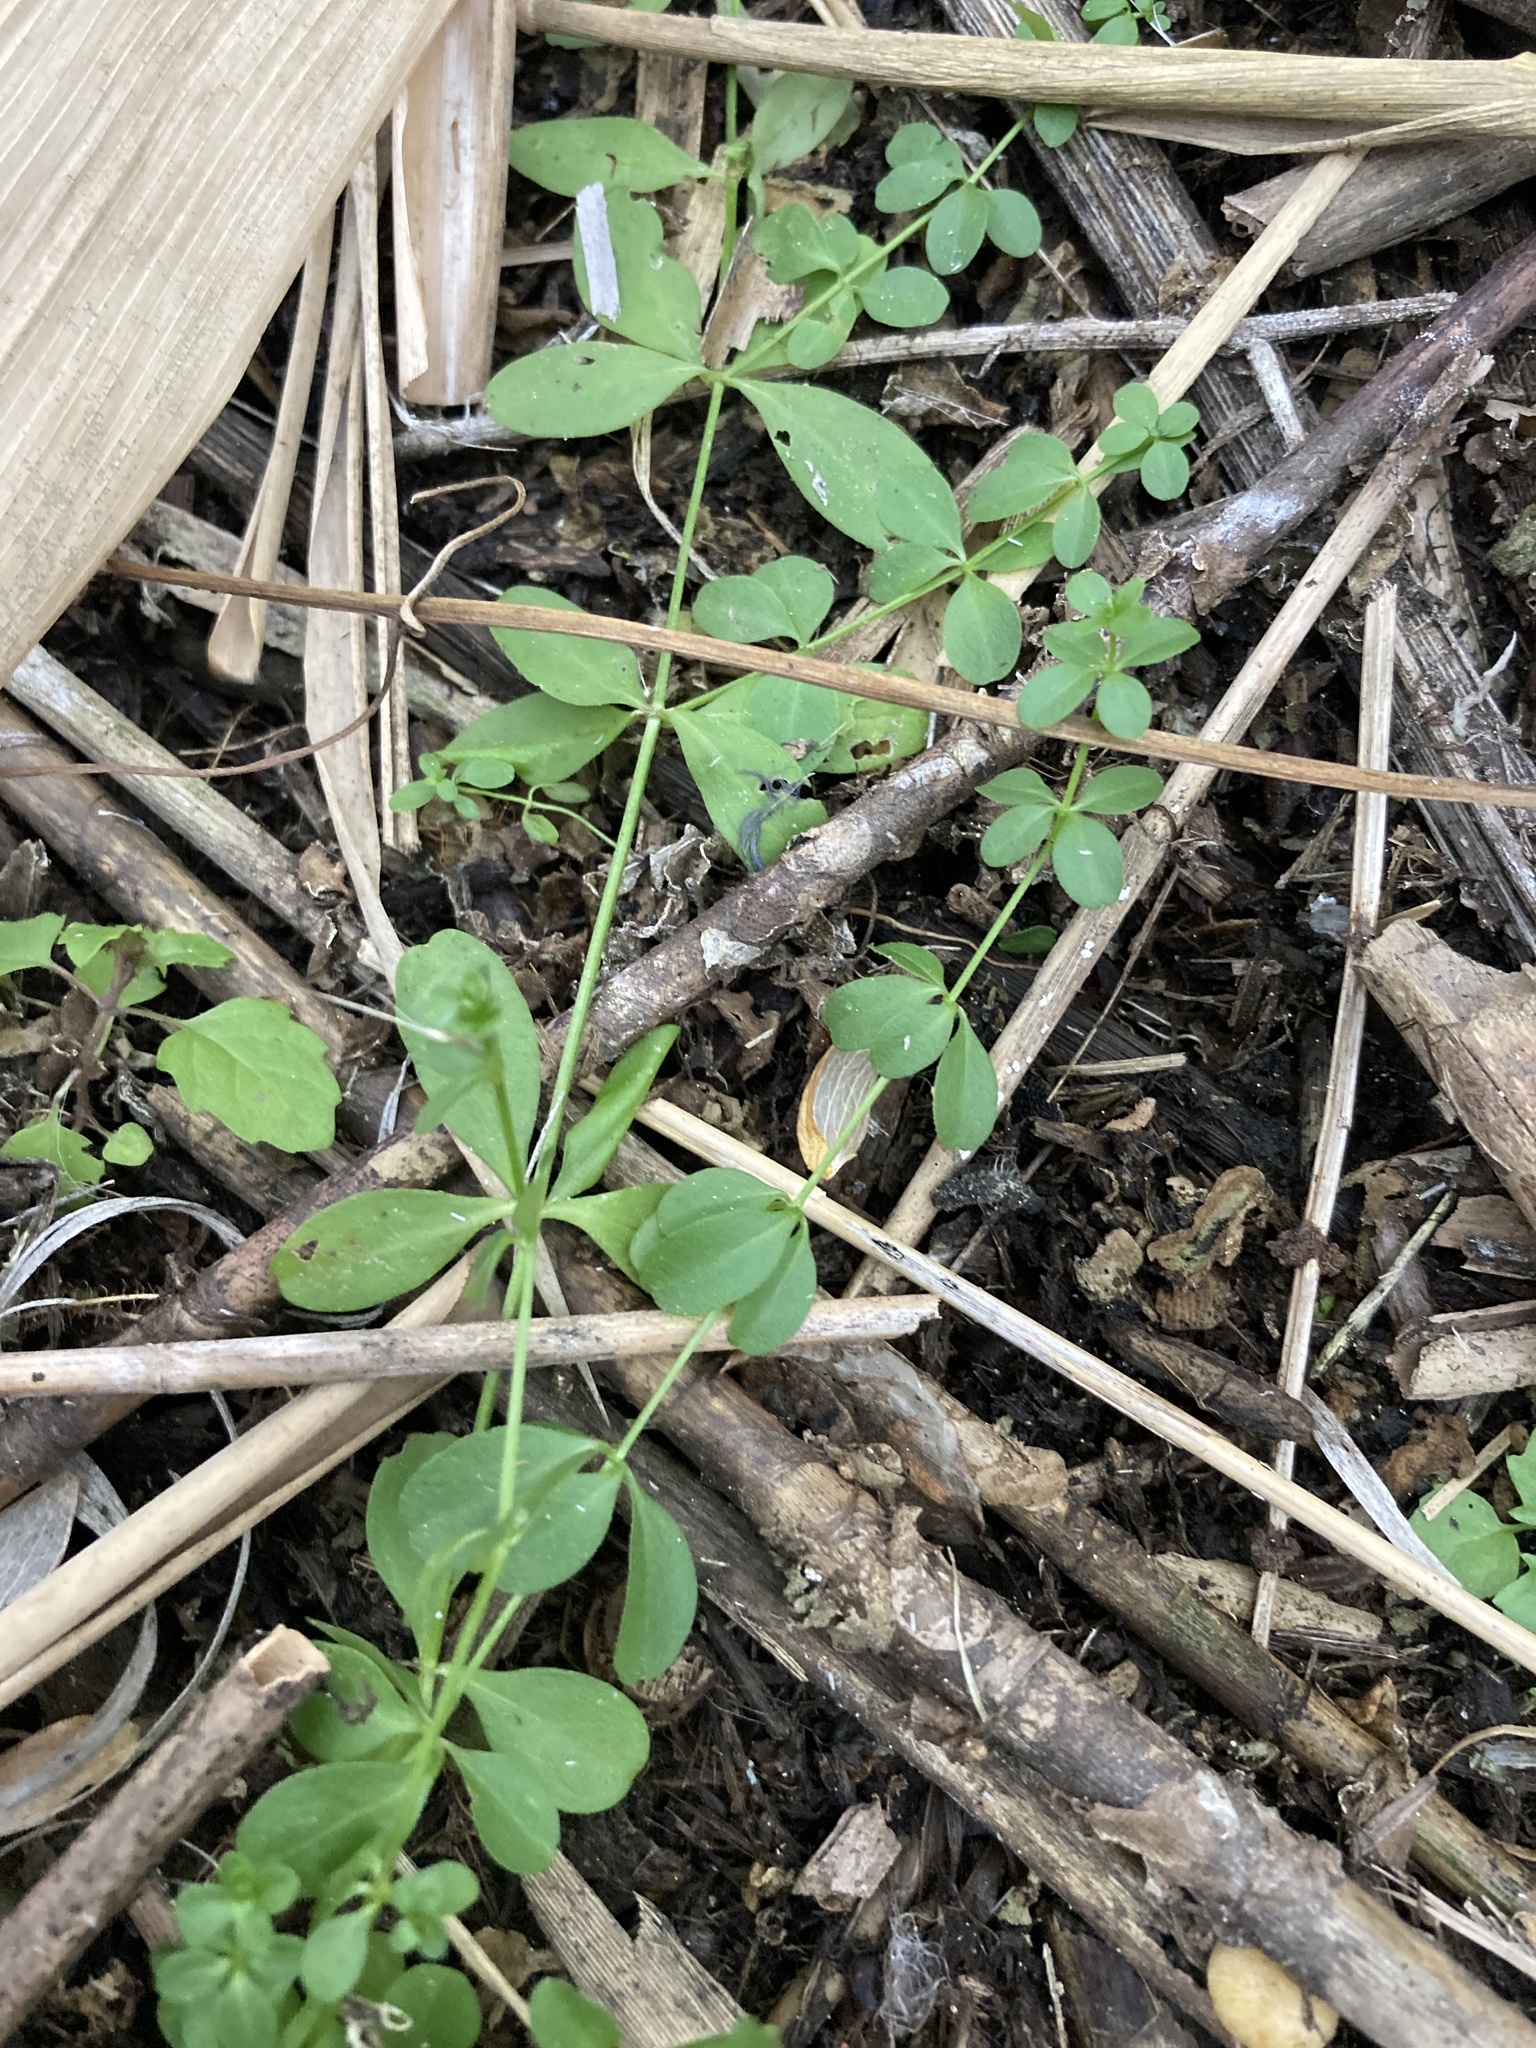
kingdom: Plantae
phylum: Tracheophyta
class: Magnoliopsida
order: Gentianales
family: Rubiaceae
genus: Galium
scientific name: Galium palustre
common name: Common marsh-bedstraw
